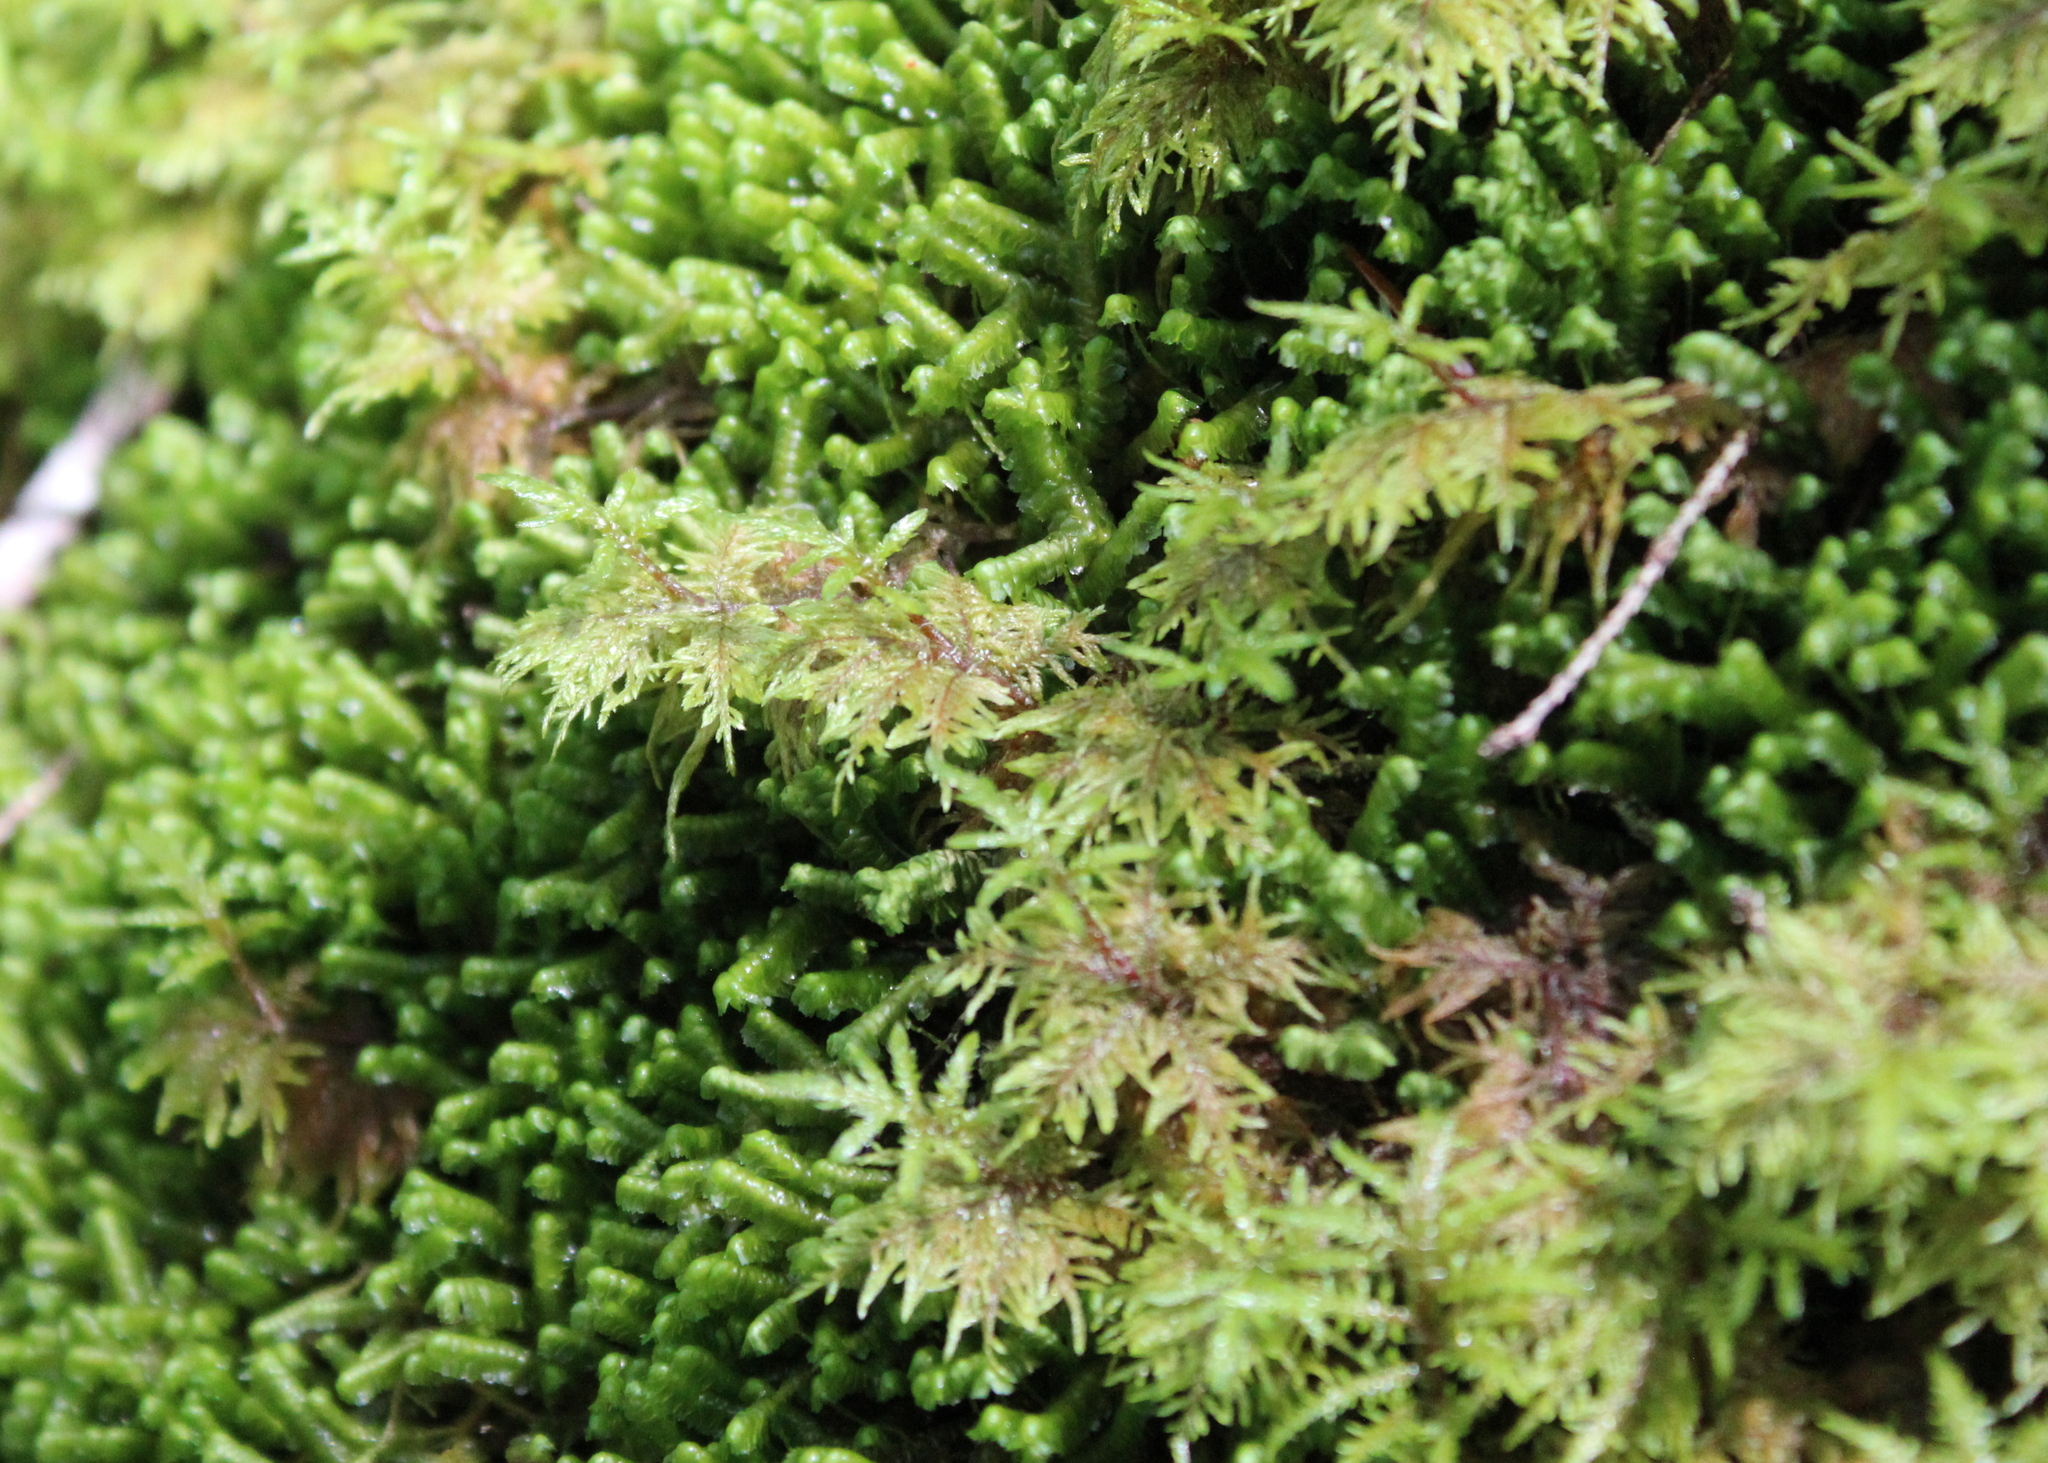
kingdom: Plantae
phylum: Bryophyta
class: Bryopsida
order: Hypnales
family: Hylocomiaceae
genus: Hylocomium
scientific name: Hylocomium splendens
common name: Stairstep moss
